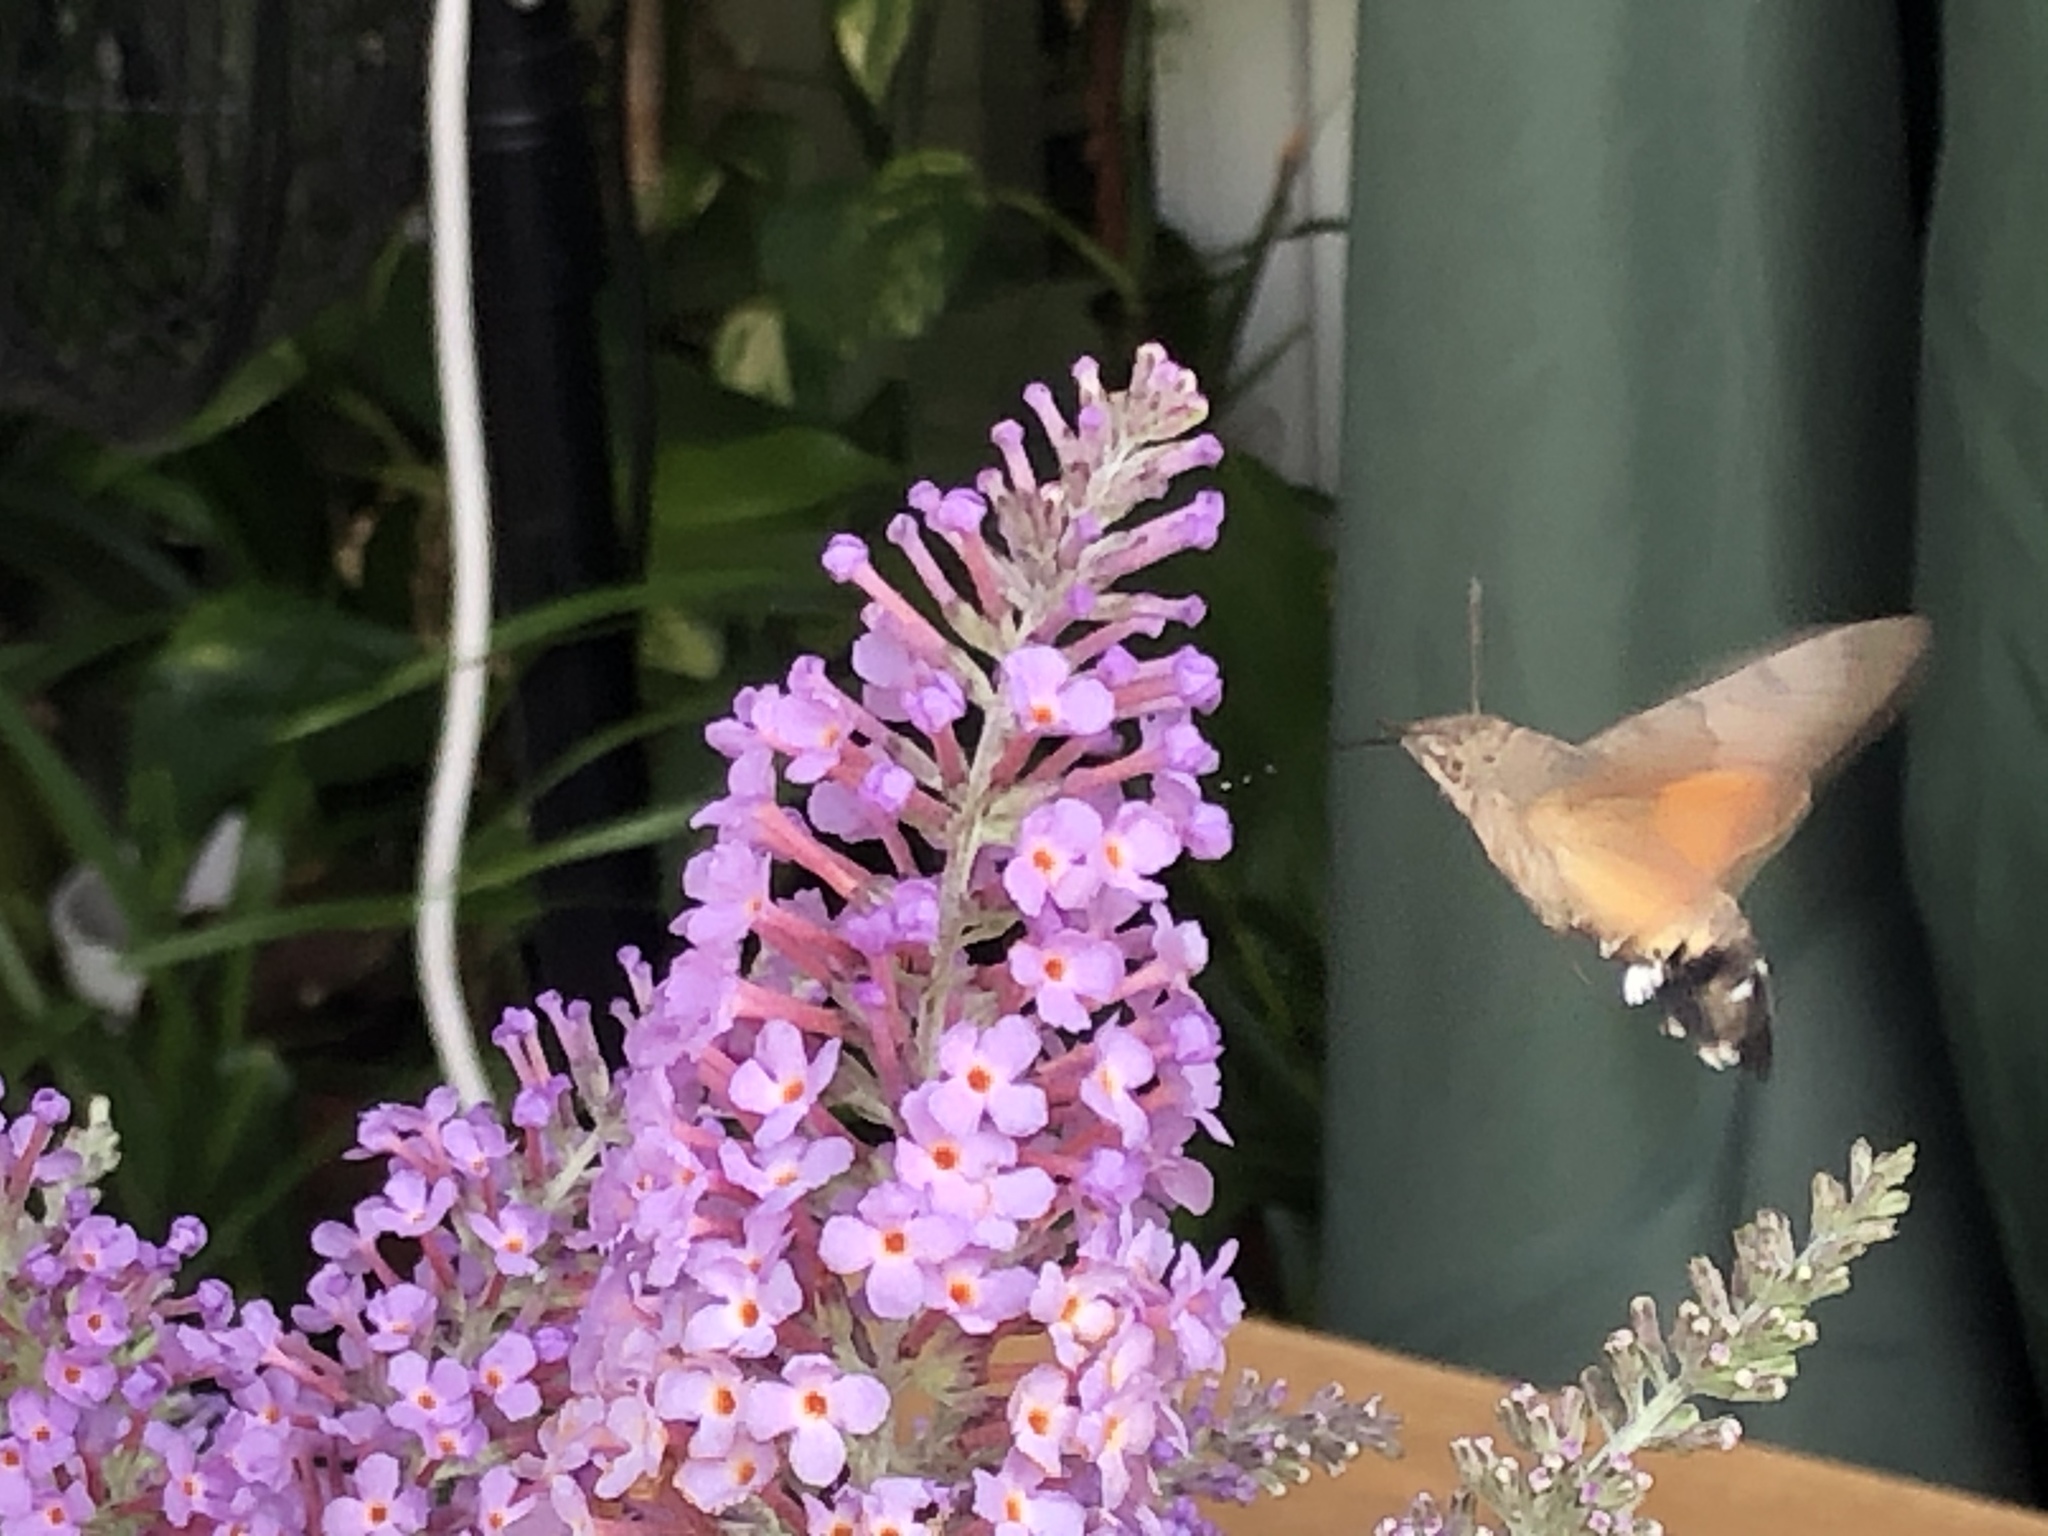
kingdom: Animalia
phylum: Arthropoda
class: Insecta
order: Lepidoptera
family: Sphingidae
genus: Macroglossum
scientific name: Macroglossum stellatarum
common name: Humming-bird hawk-moth
